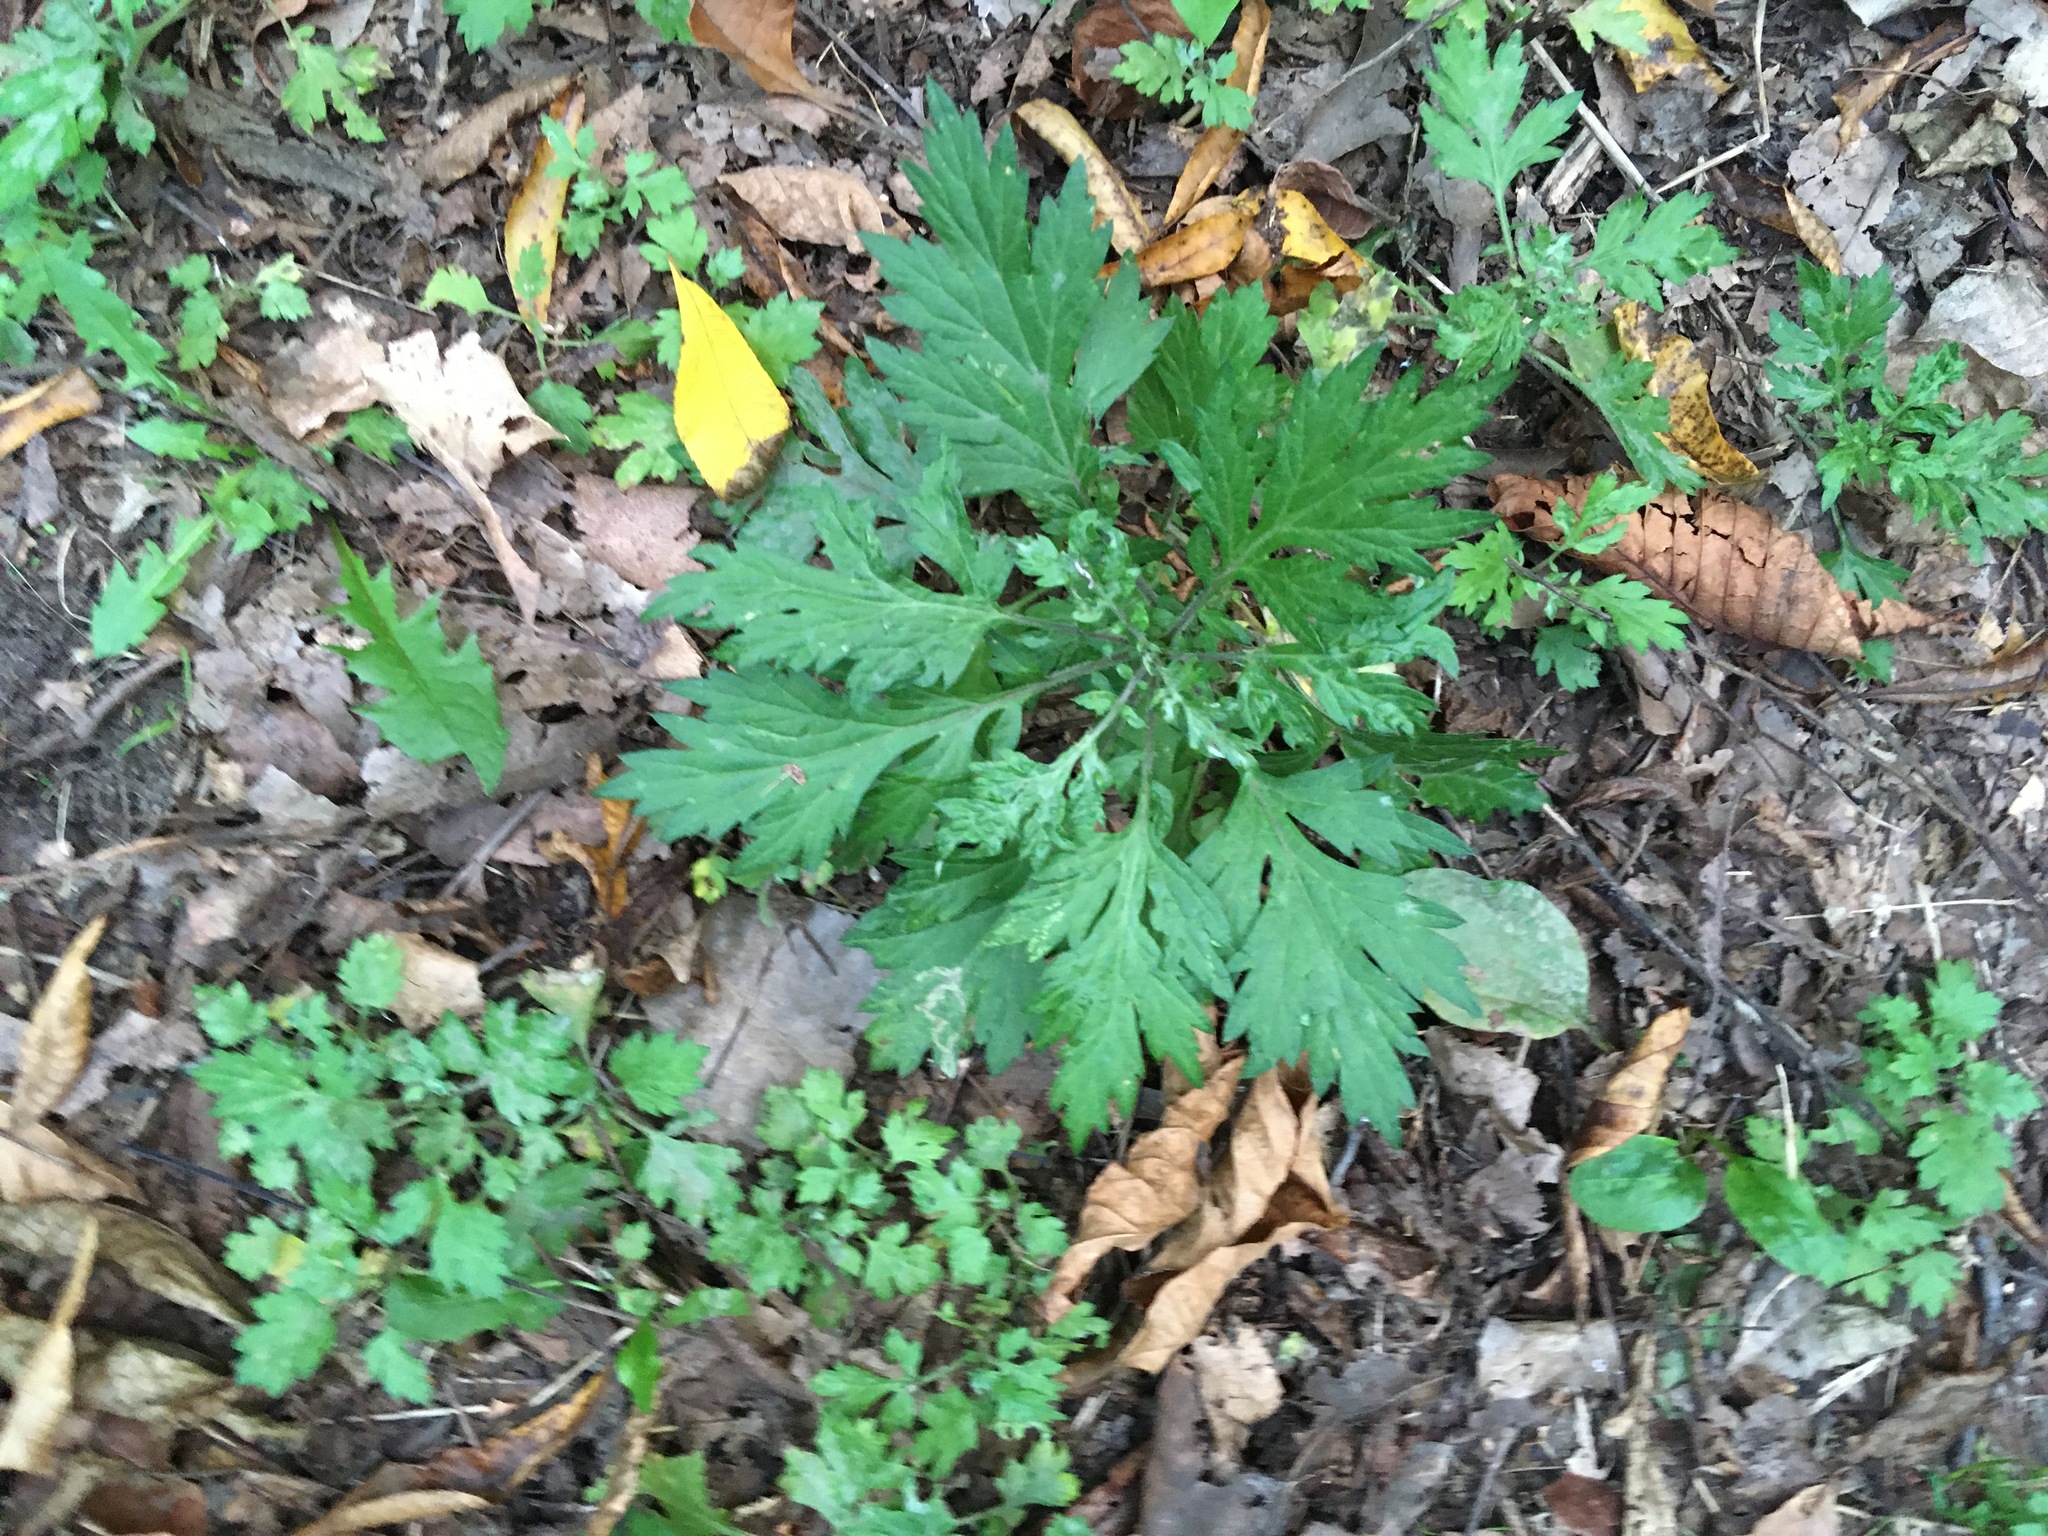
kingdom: Plantae
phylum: Tracheophyta
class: Magnoliopsida
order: Asterales
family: Asteraceae
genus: Artemisia
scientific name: Artemisia vulgaris
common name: Mugwort
